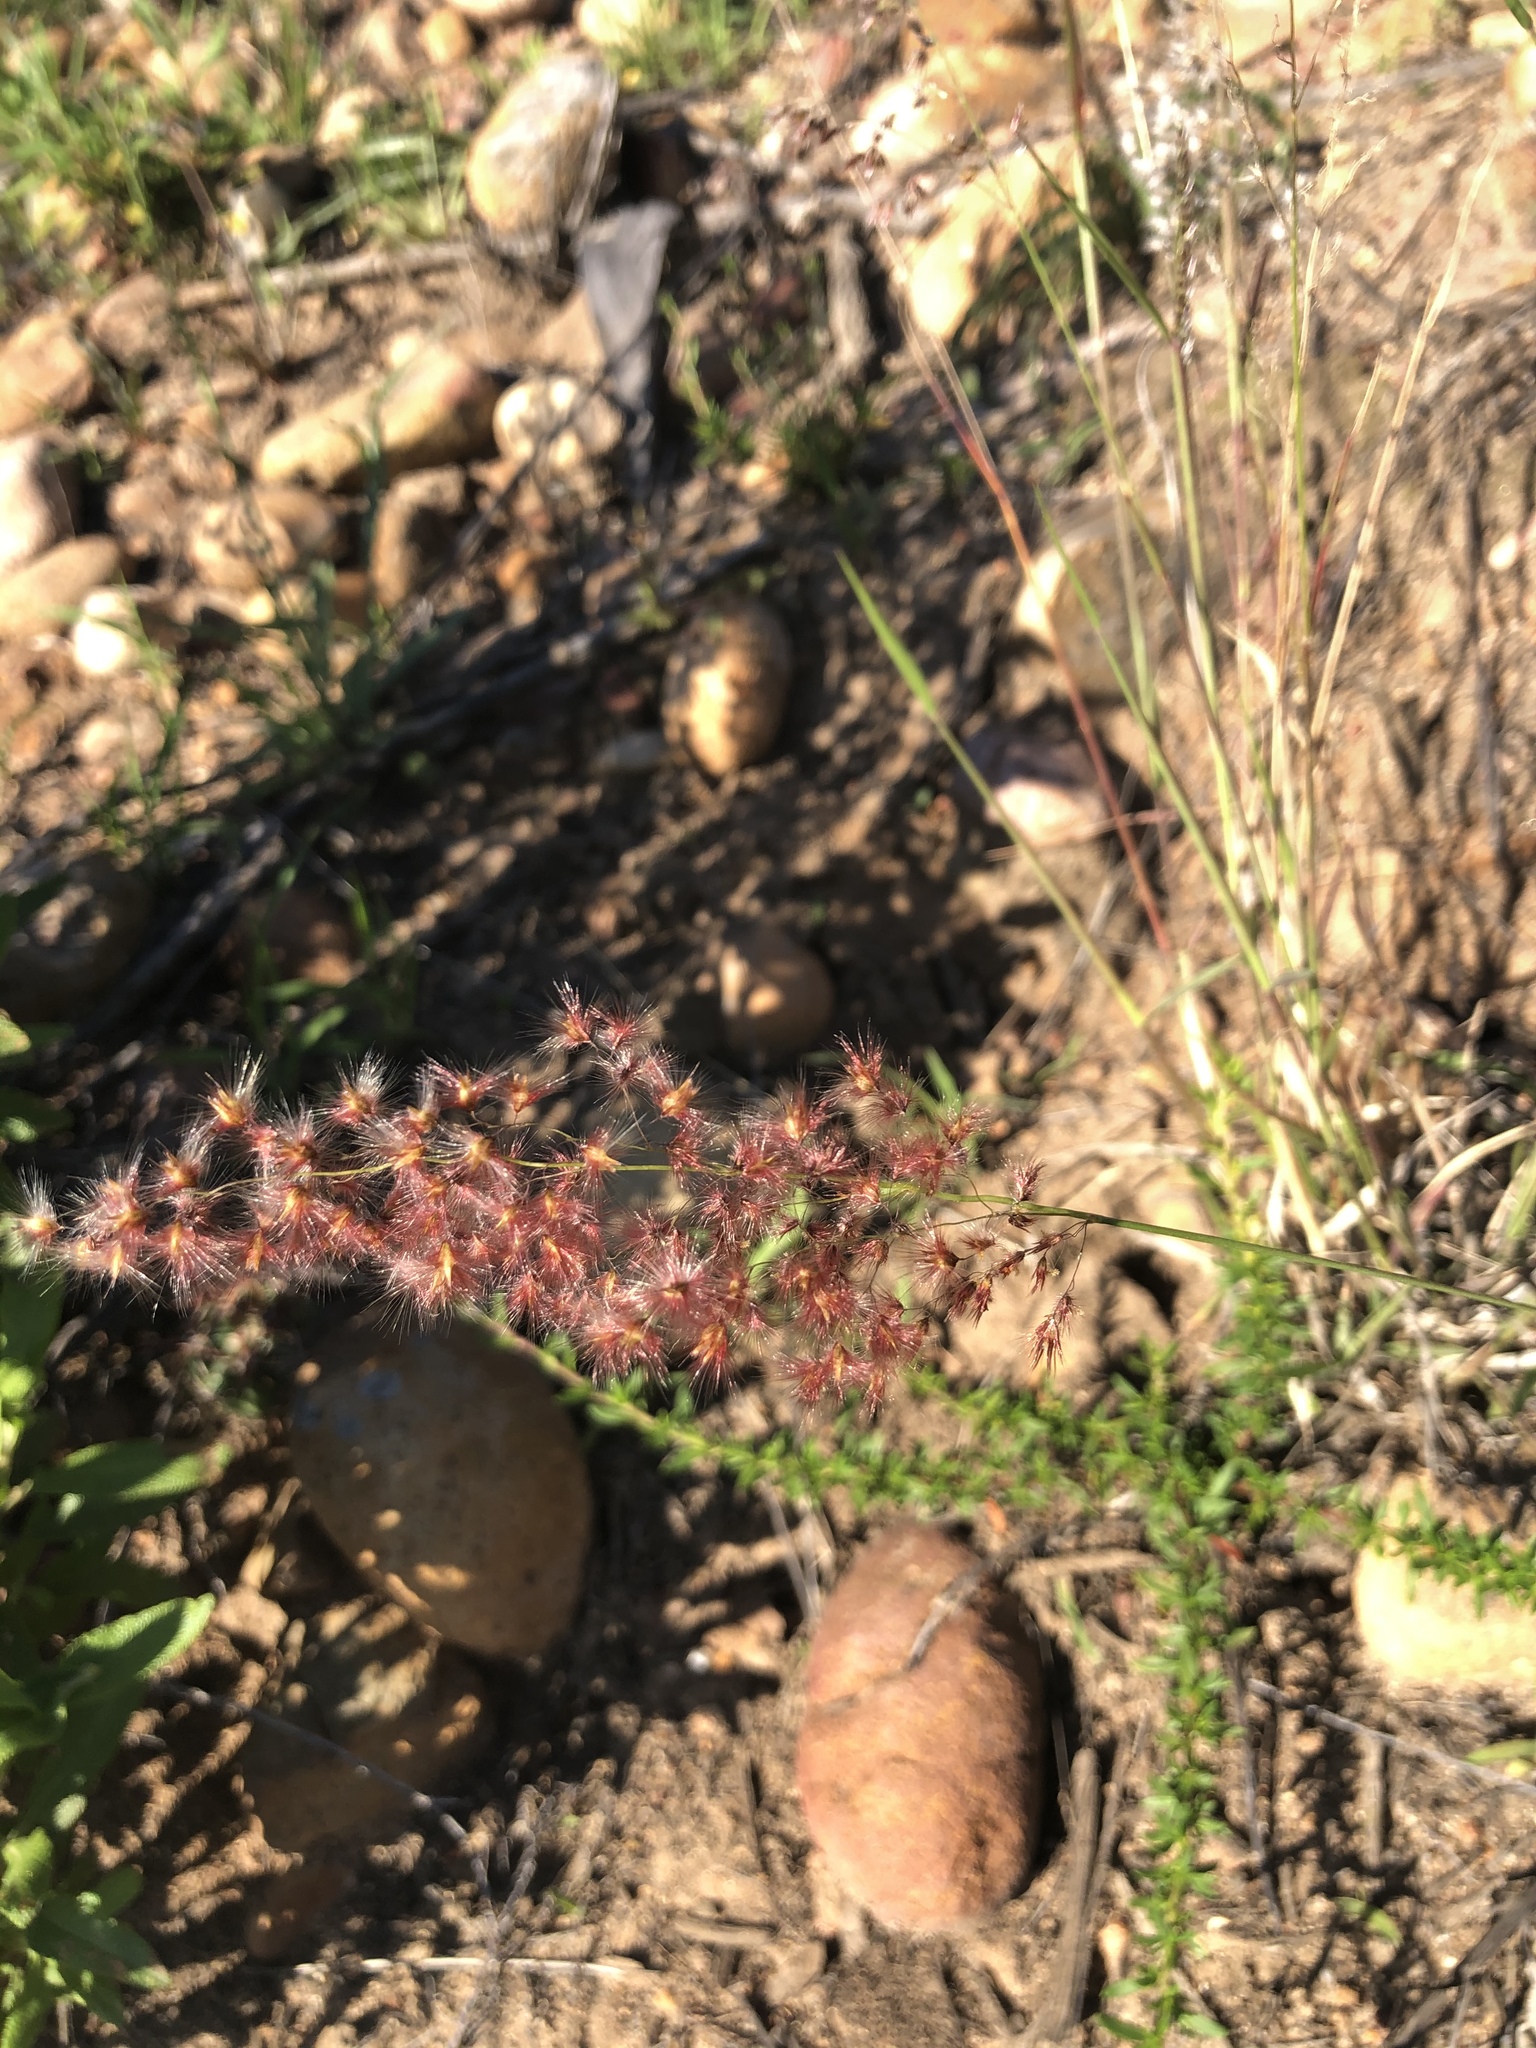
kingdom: Plantae
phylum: Tracheophyta
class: Liliopsida
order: Poales
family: Poaceae
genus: Melinis
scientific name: Melinis repens
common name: Rose natal grass
